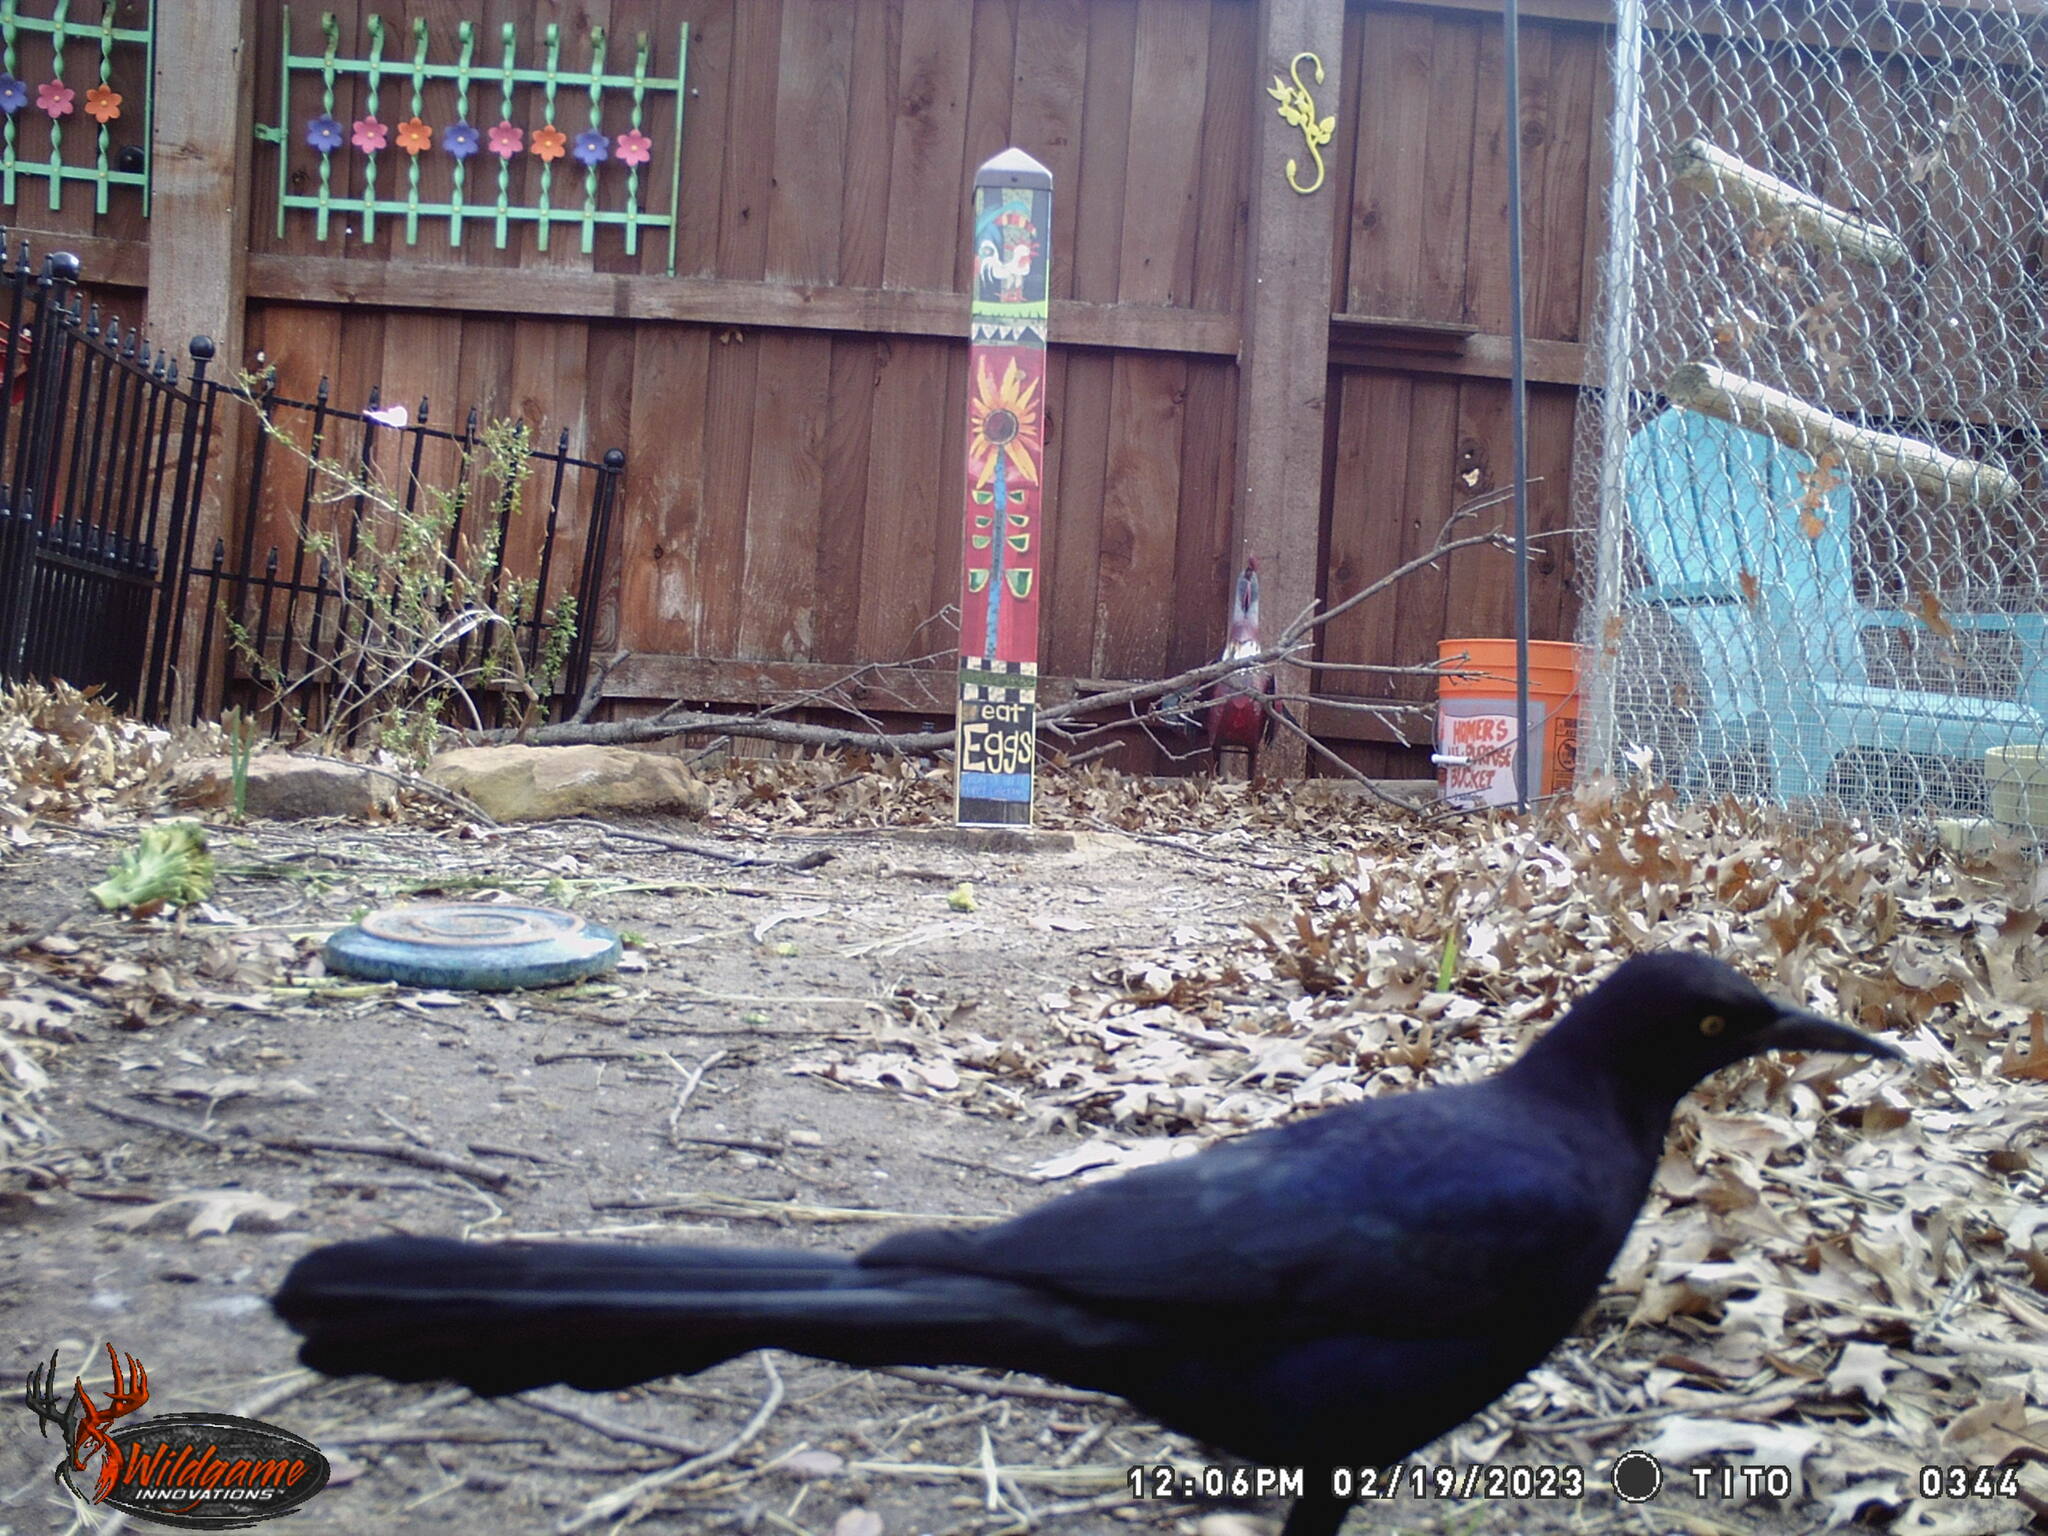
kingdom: Animalia
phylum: Chordata
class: Aves
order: Passeriformes
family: Icteridae
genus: Quiscalus
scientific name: Quiscalus mexicanus
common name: Great-tailed grackle
